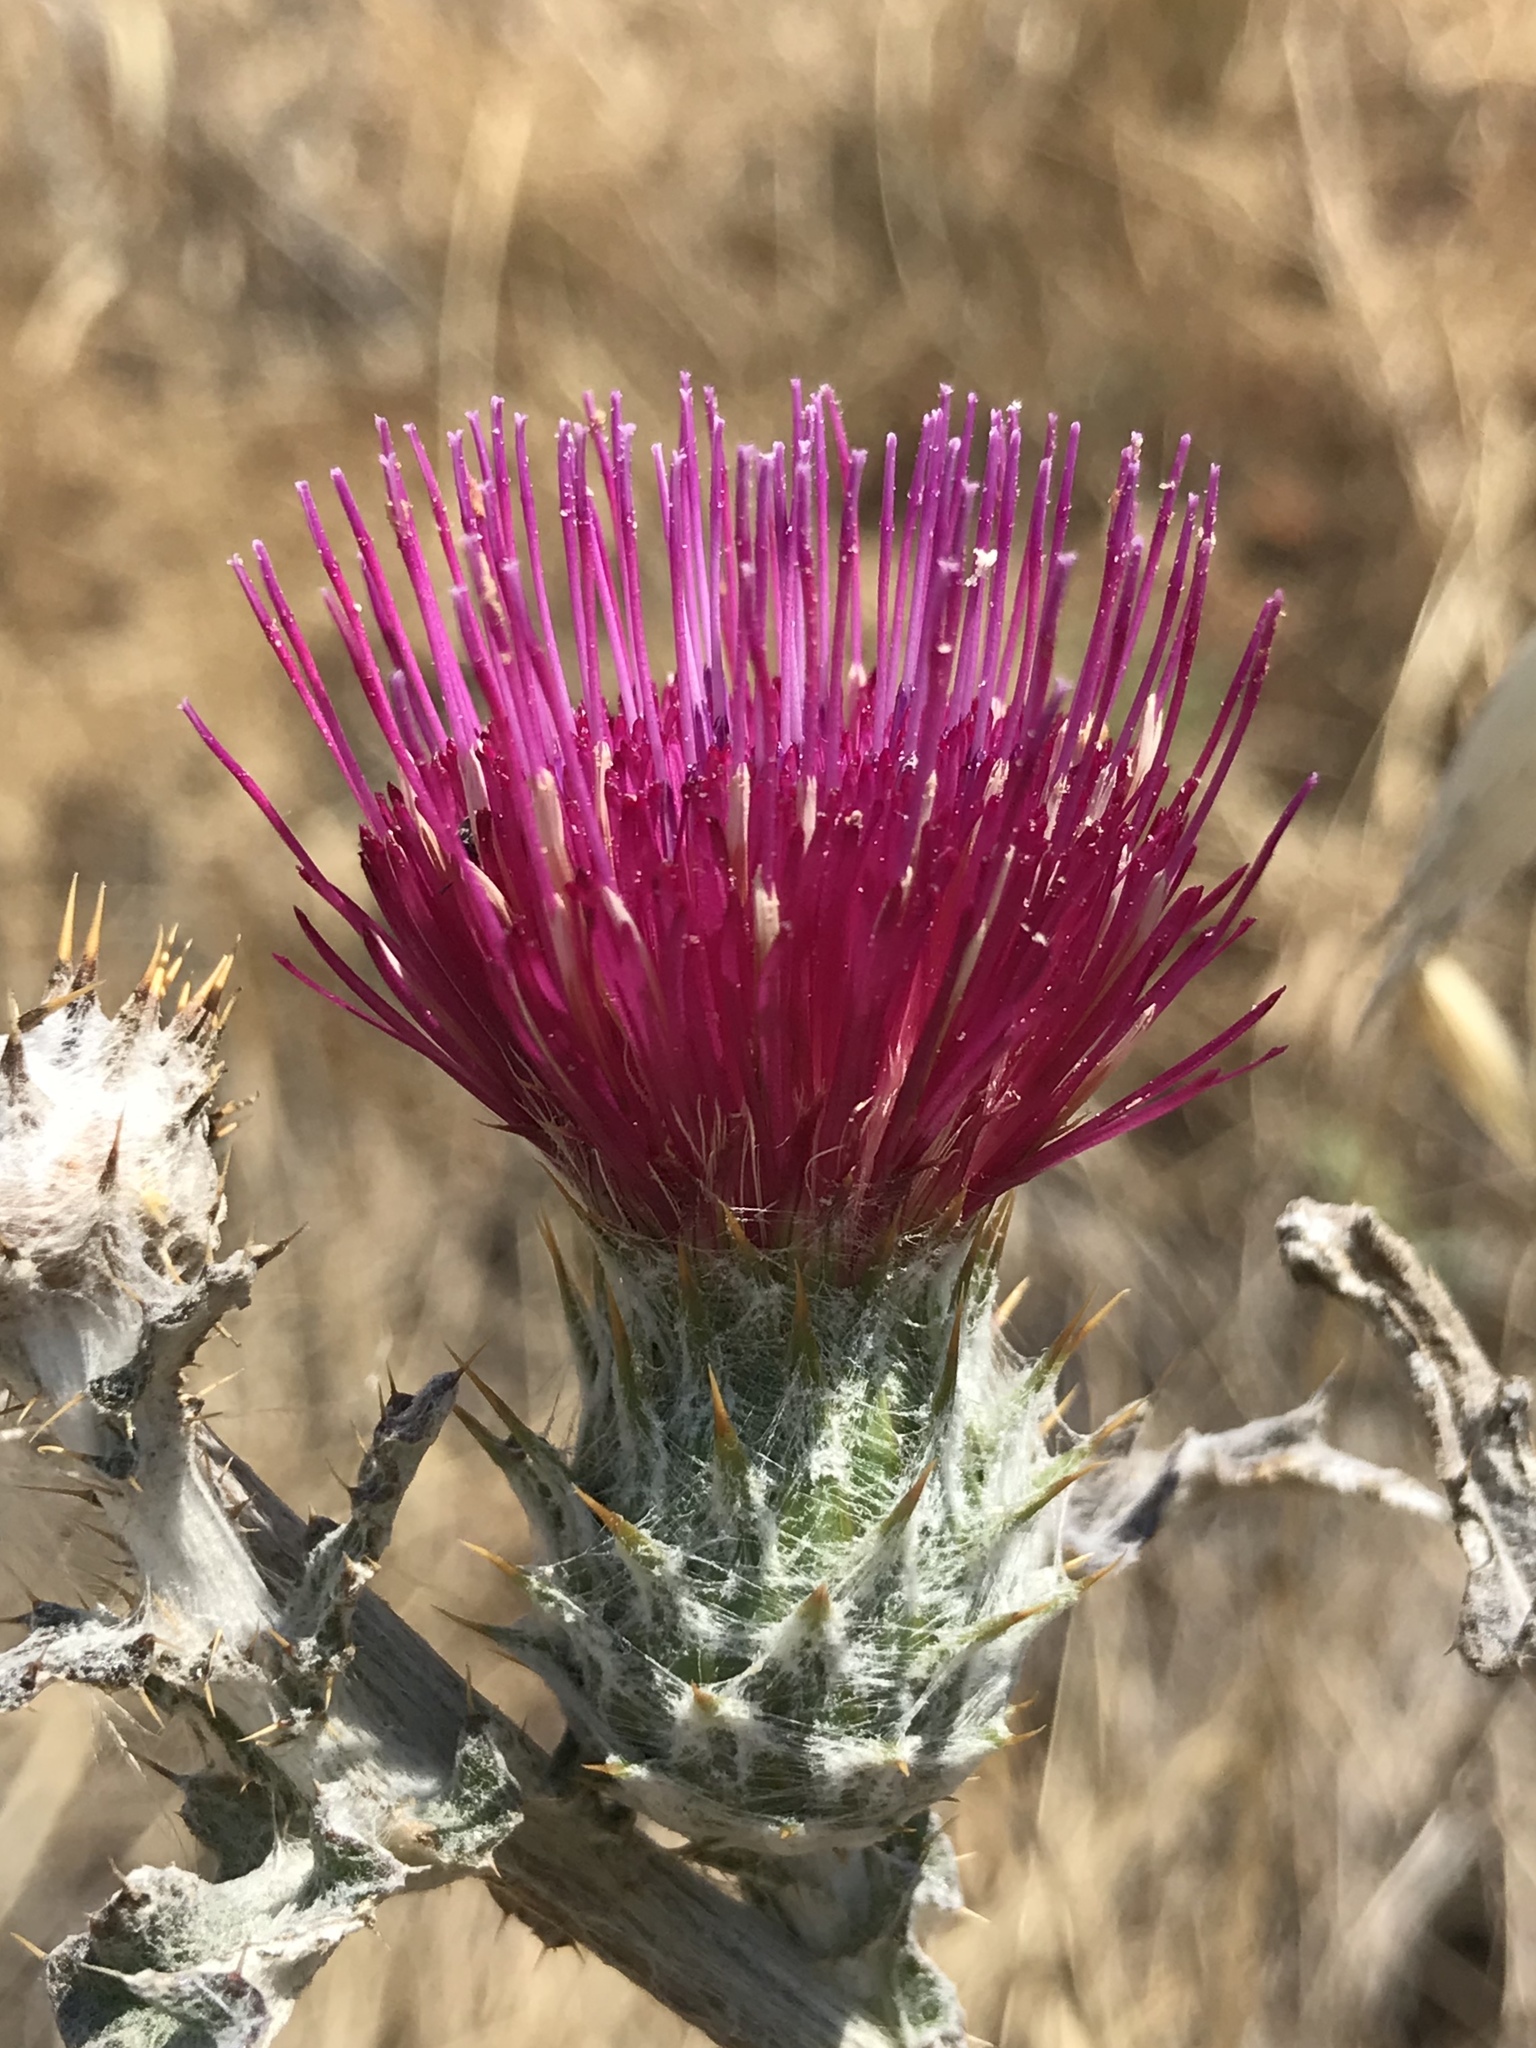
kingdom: Plantae
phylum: Tracheophyta
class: Magnoliopsida
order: Asterales
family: Asteraceae
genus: Cirsium
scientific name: Cirsium occidentale
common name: Western thistle
